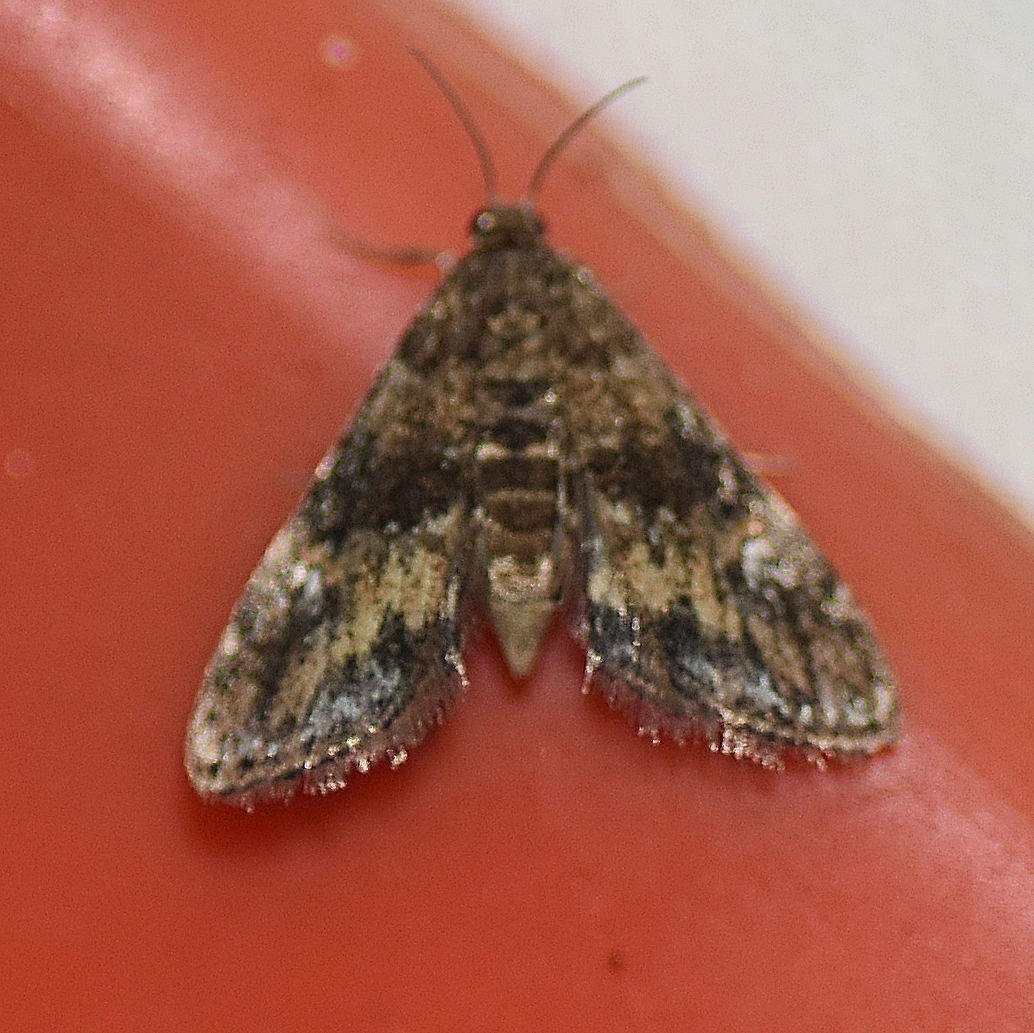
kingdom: Animalia
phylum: Arthropoda
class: Insecta
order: Lepidoptera
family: Crambidae
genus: Elophila
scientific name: Elophila obliteralis
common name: Waterlily leafcutter moth
